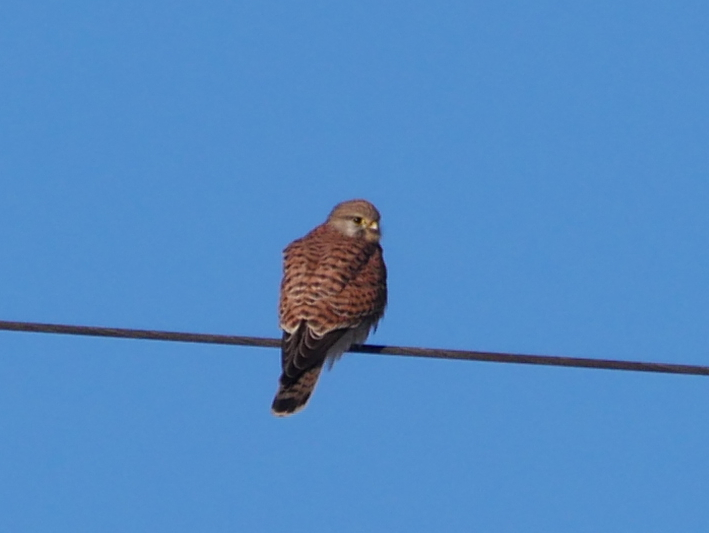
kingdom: Animalia
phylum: Chordata
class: Aves
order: Falconiformes
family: Falconidae
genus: Falco
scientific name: Falco tinnunculus
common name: Common kestrel
